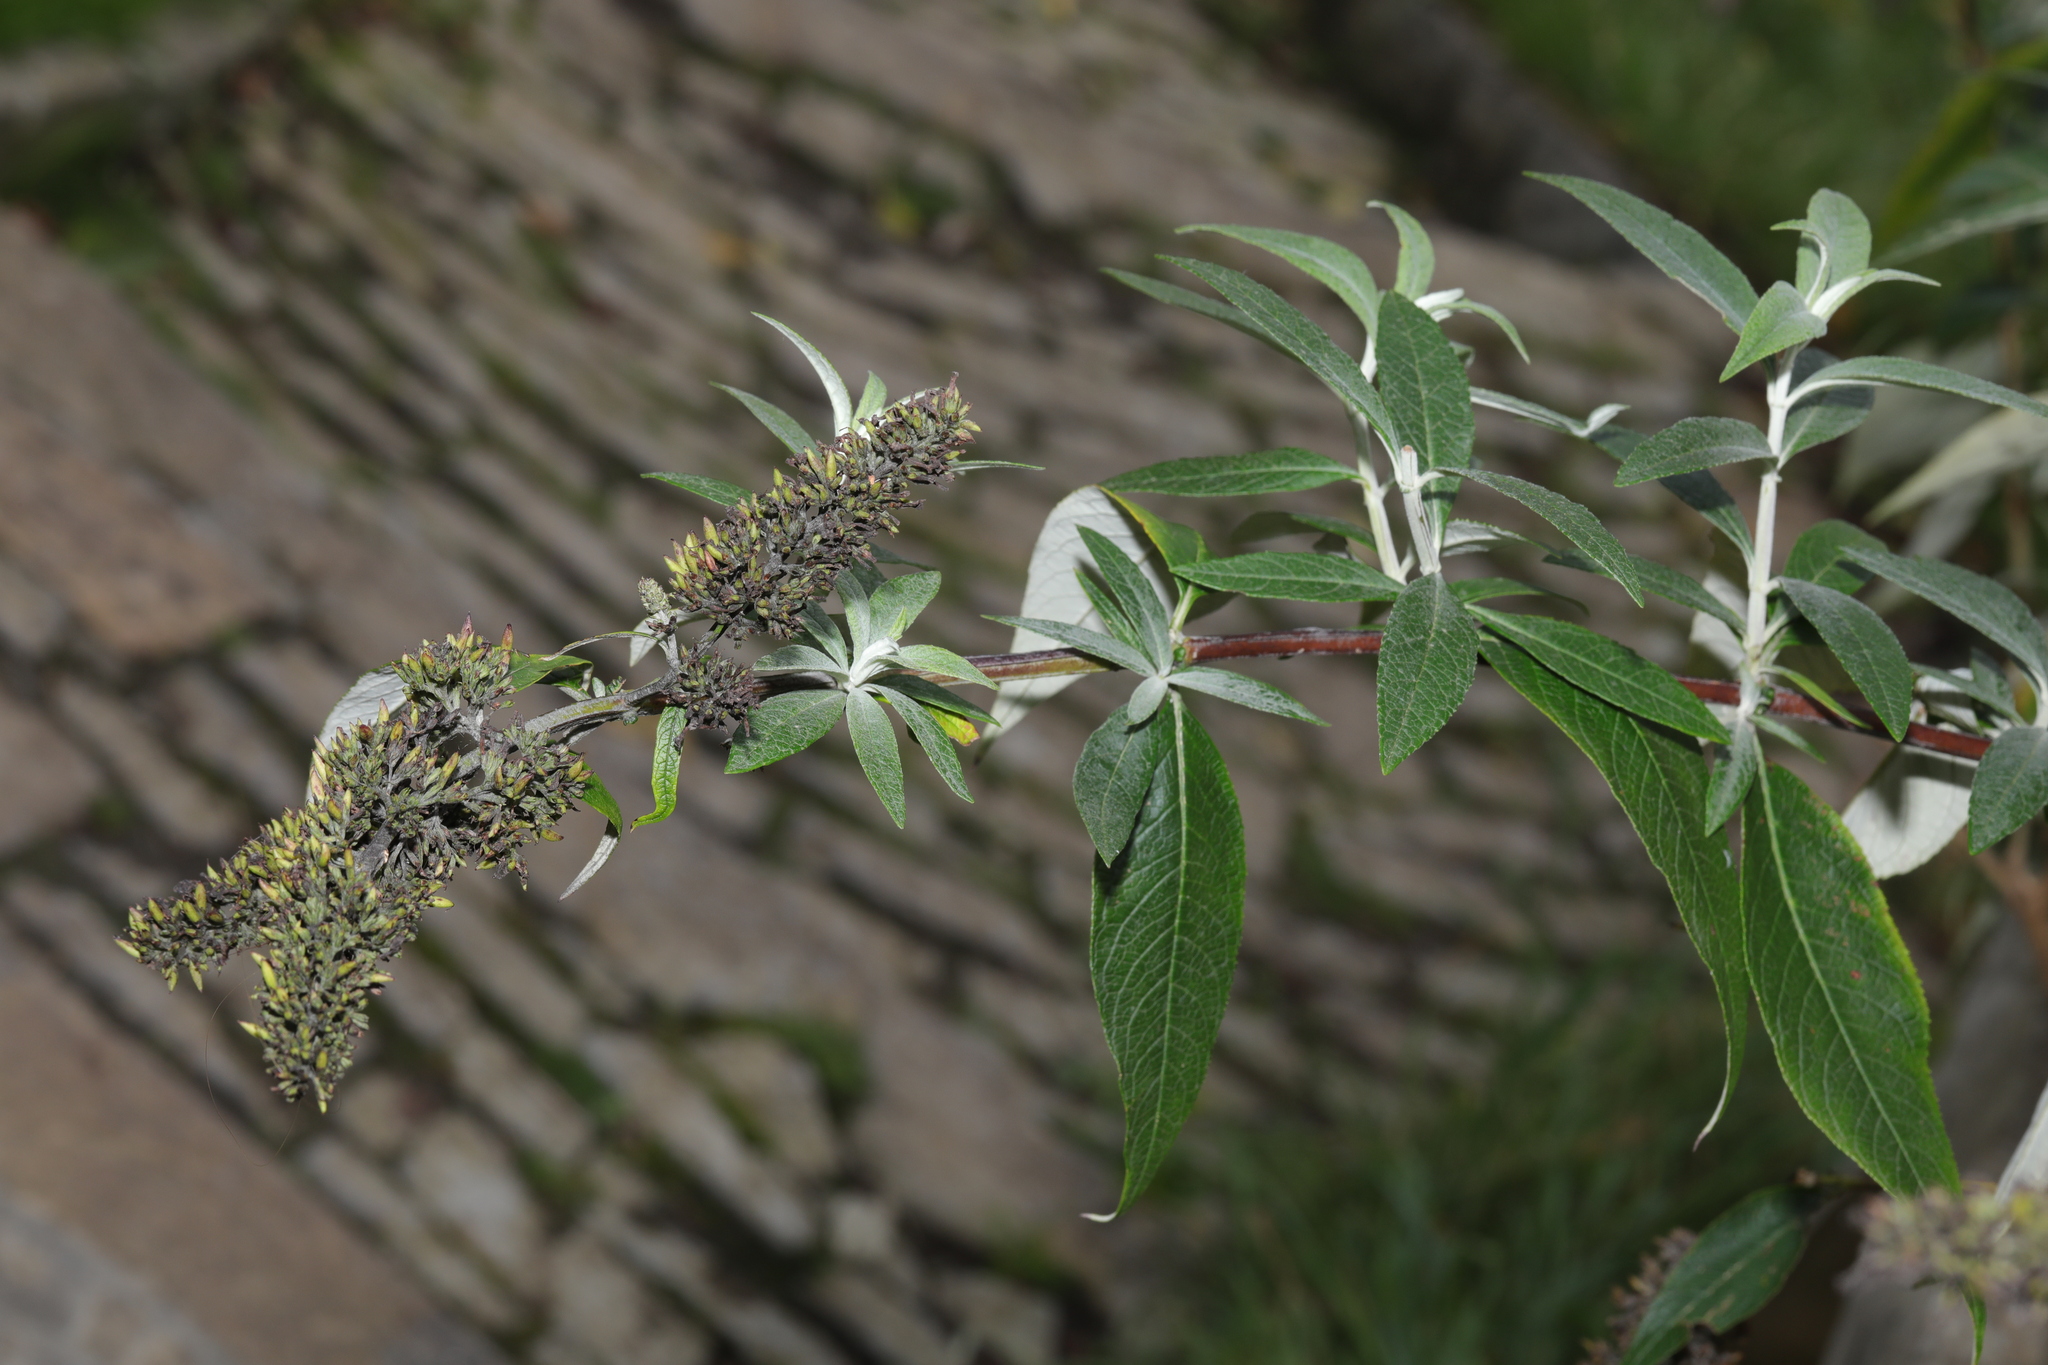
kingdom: Plantae
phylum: Tracheophyta
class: Magnoliopsida
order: Lamiales
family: Scrophulariaceae
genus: Buddleja
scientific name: Buddleja davidii
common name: Butterfly-bush
